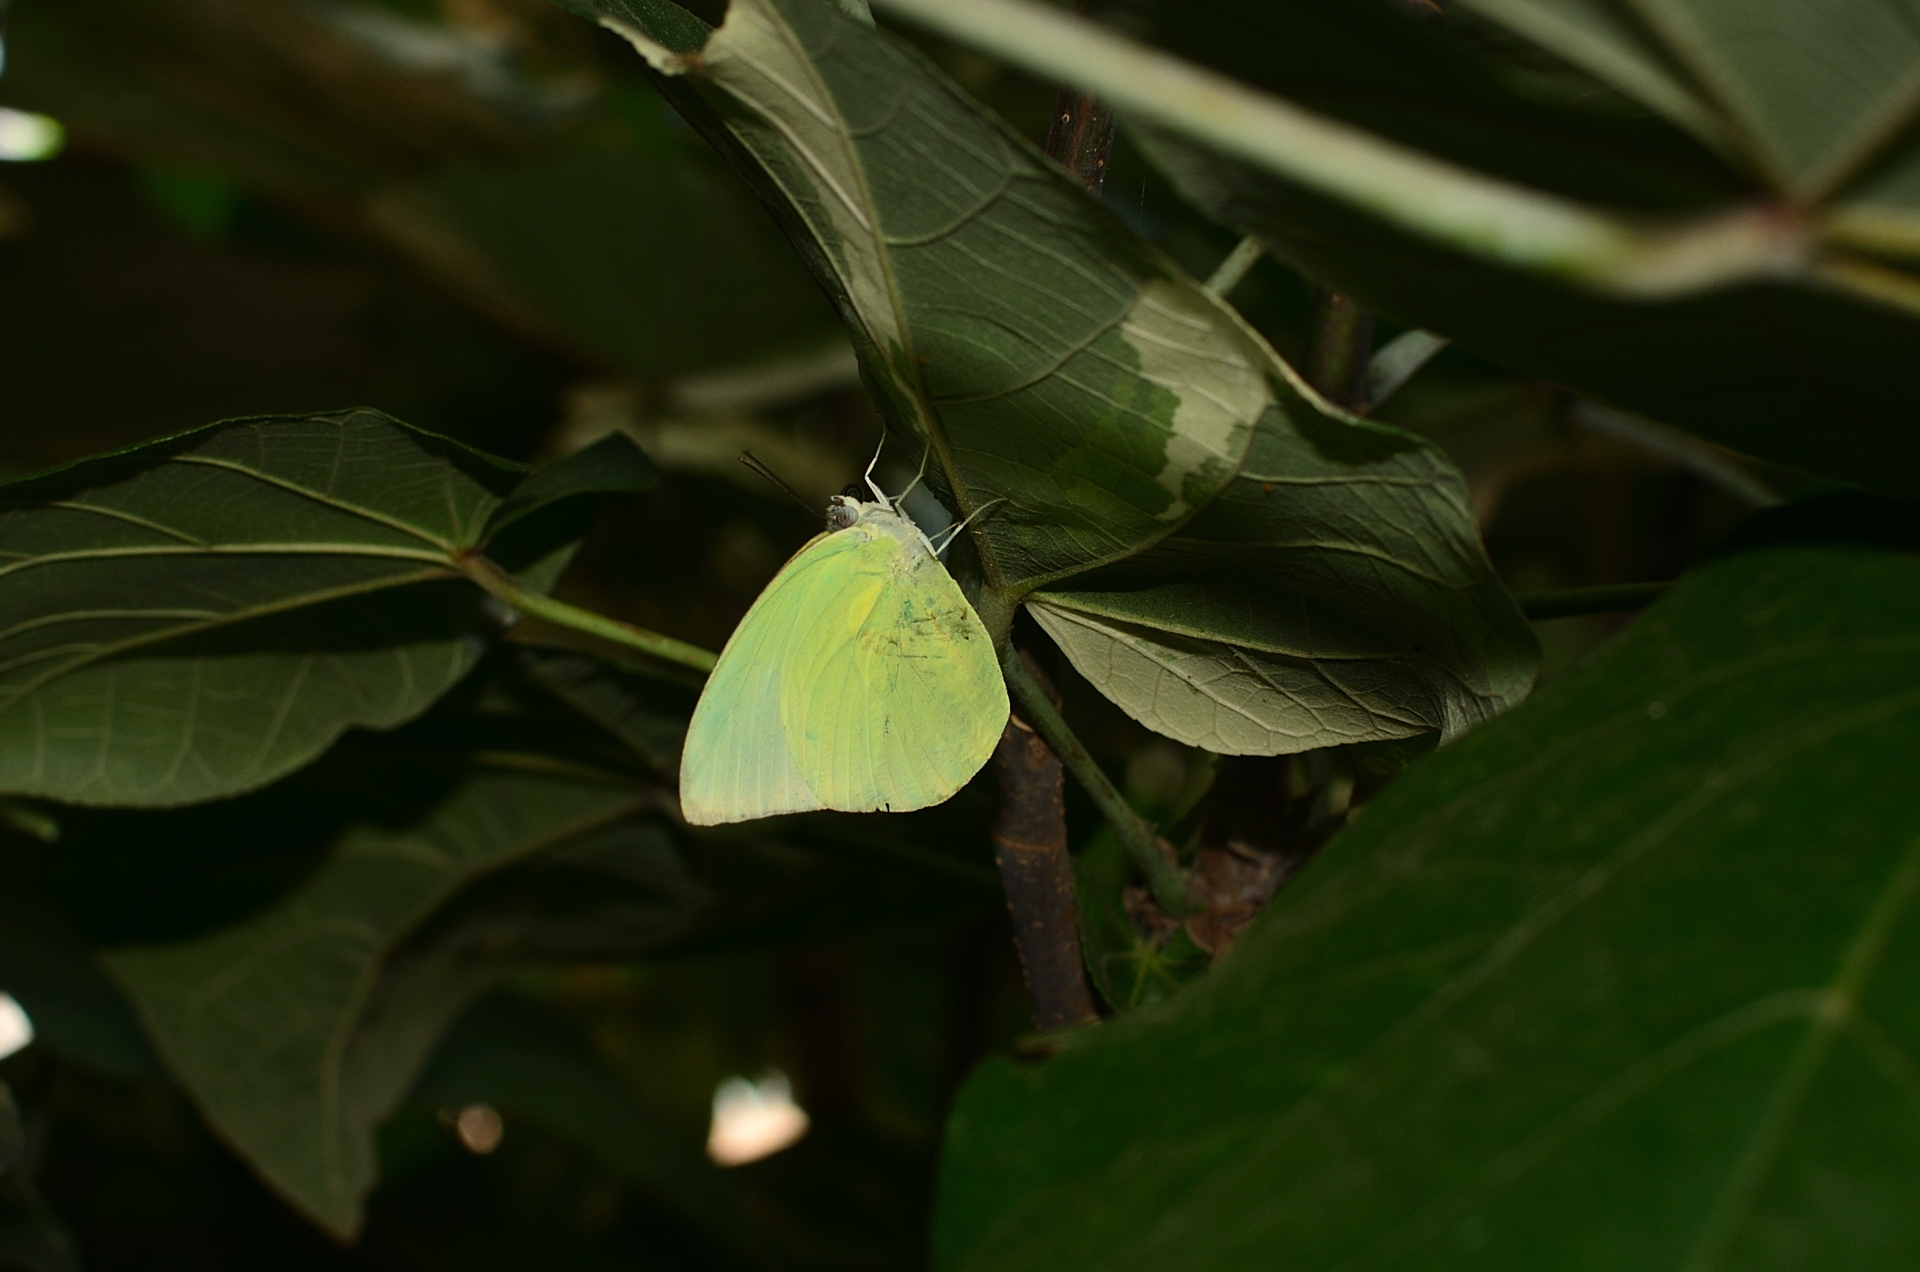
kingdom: Animalia
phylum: Arthropoda
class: Insecta
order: Lepidoptera
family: Pieridae
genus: Catopsilia
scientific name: Catopsilia pomona
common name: Common emigrant
